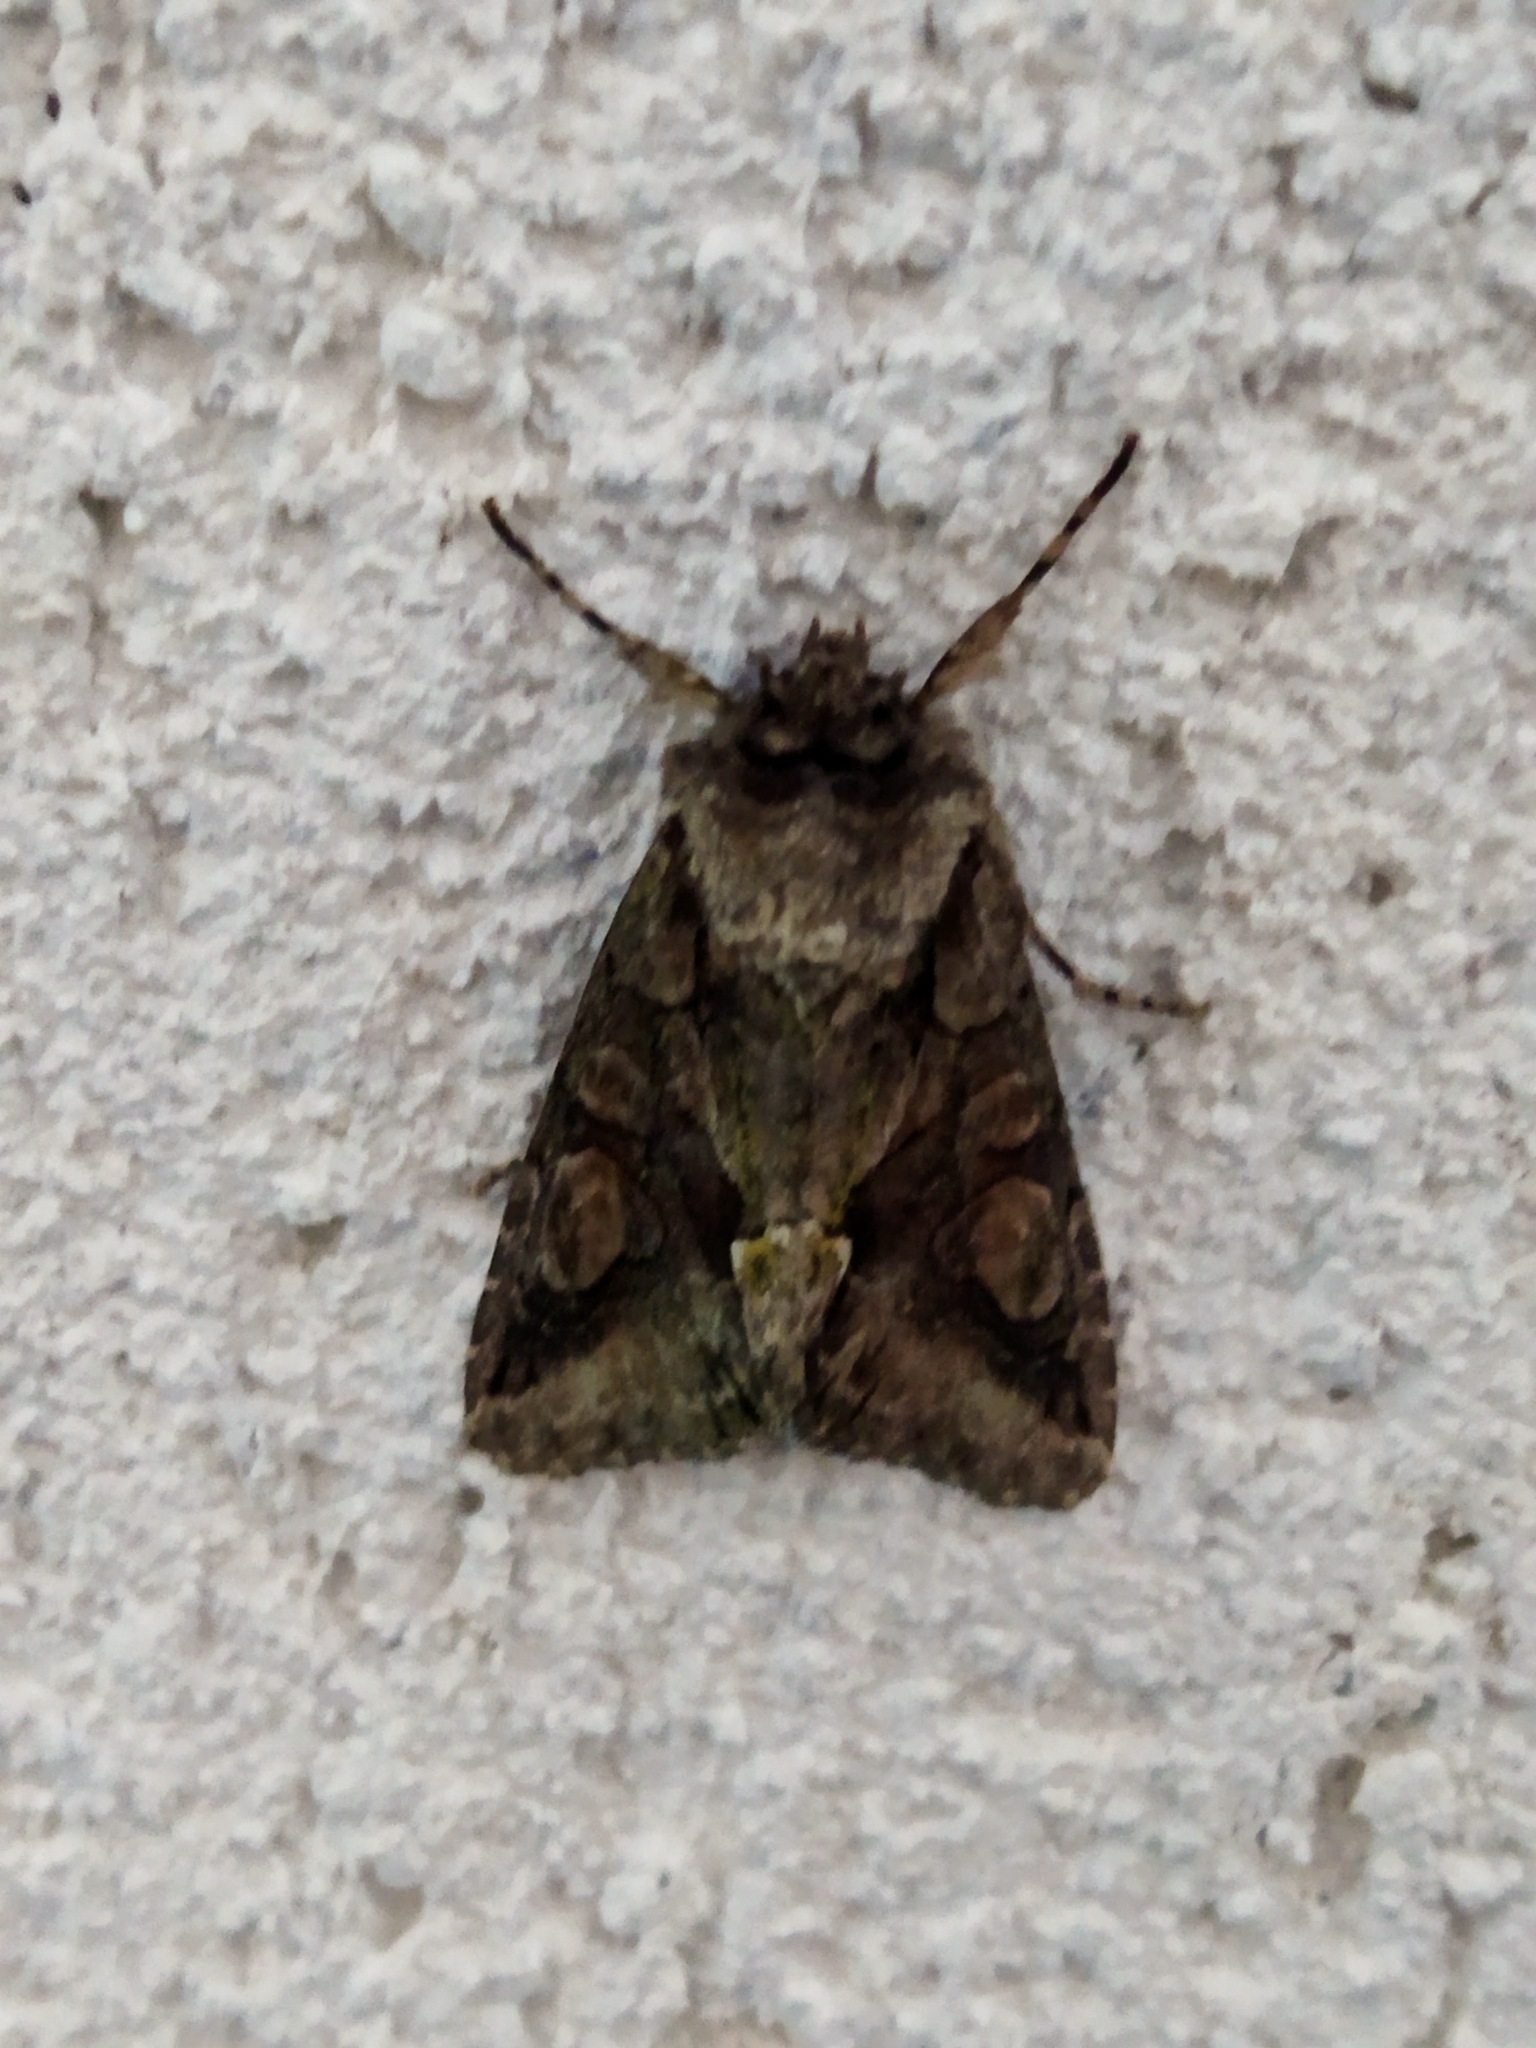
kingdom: Animalia
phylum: Arthropoda
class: Insecta
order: Lepidoptera
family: Noctuidae
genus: Allophyes
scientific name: Allophyes oxyacanthae
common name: Green-brindled crescent
